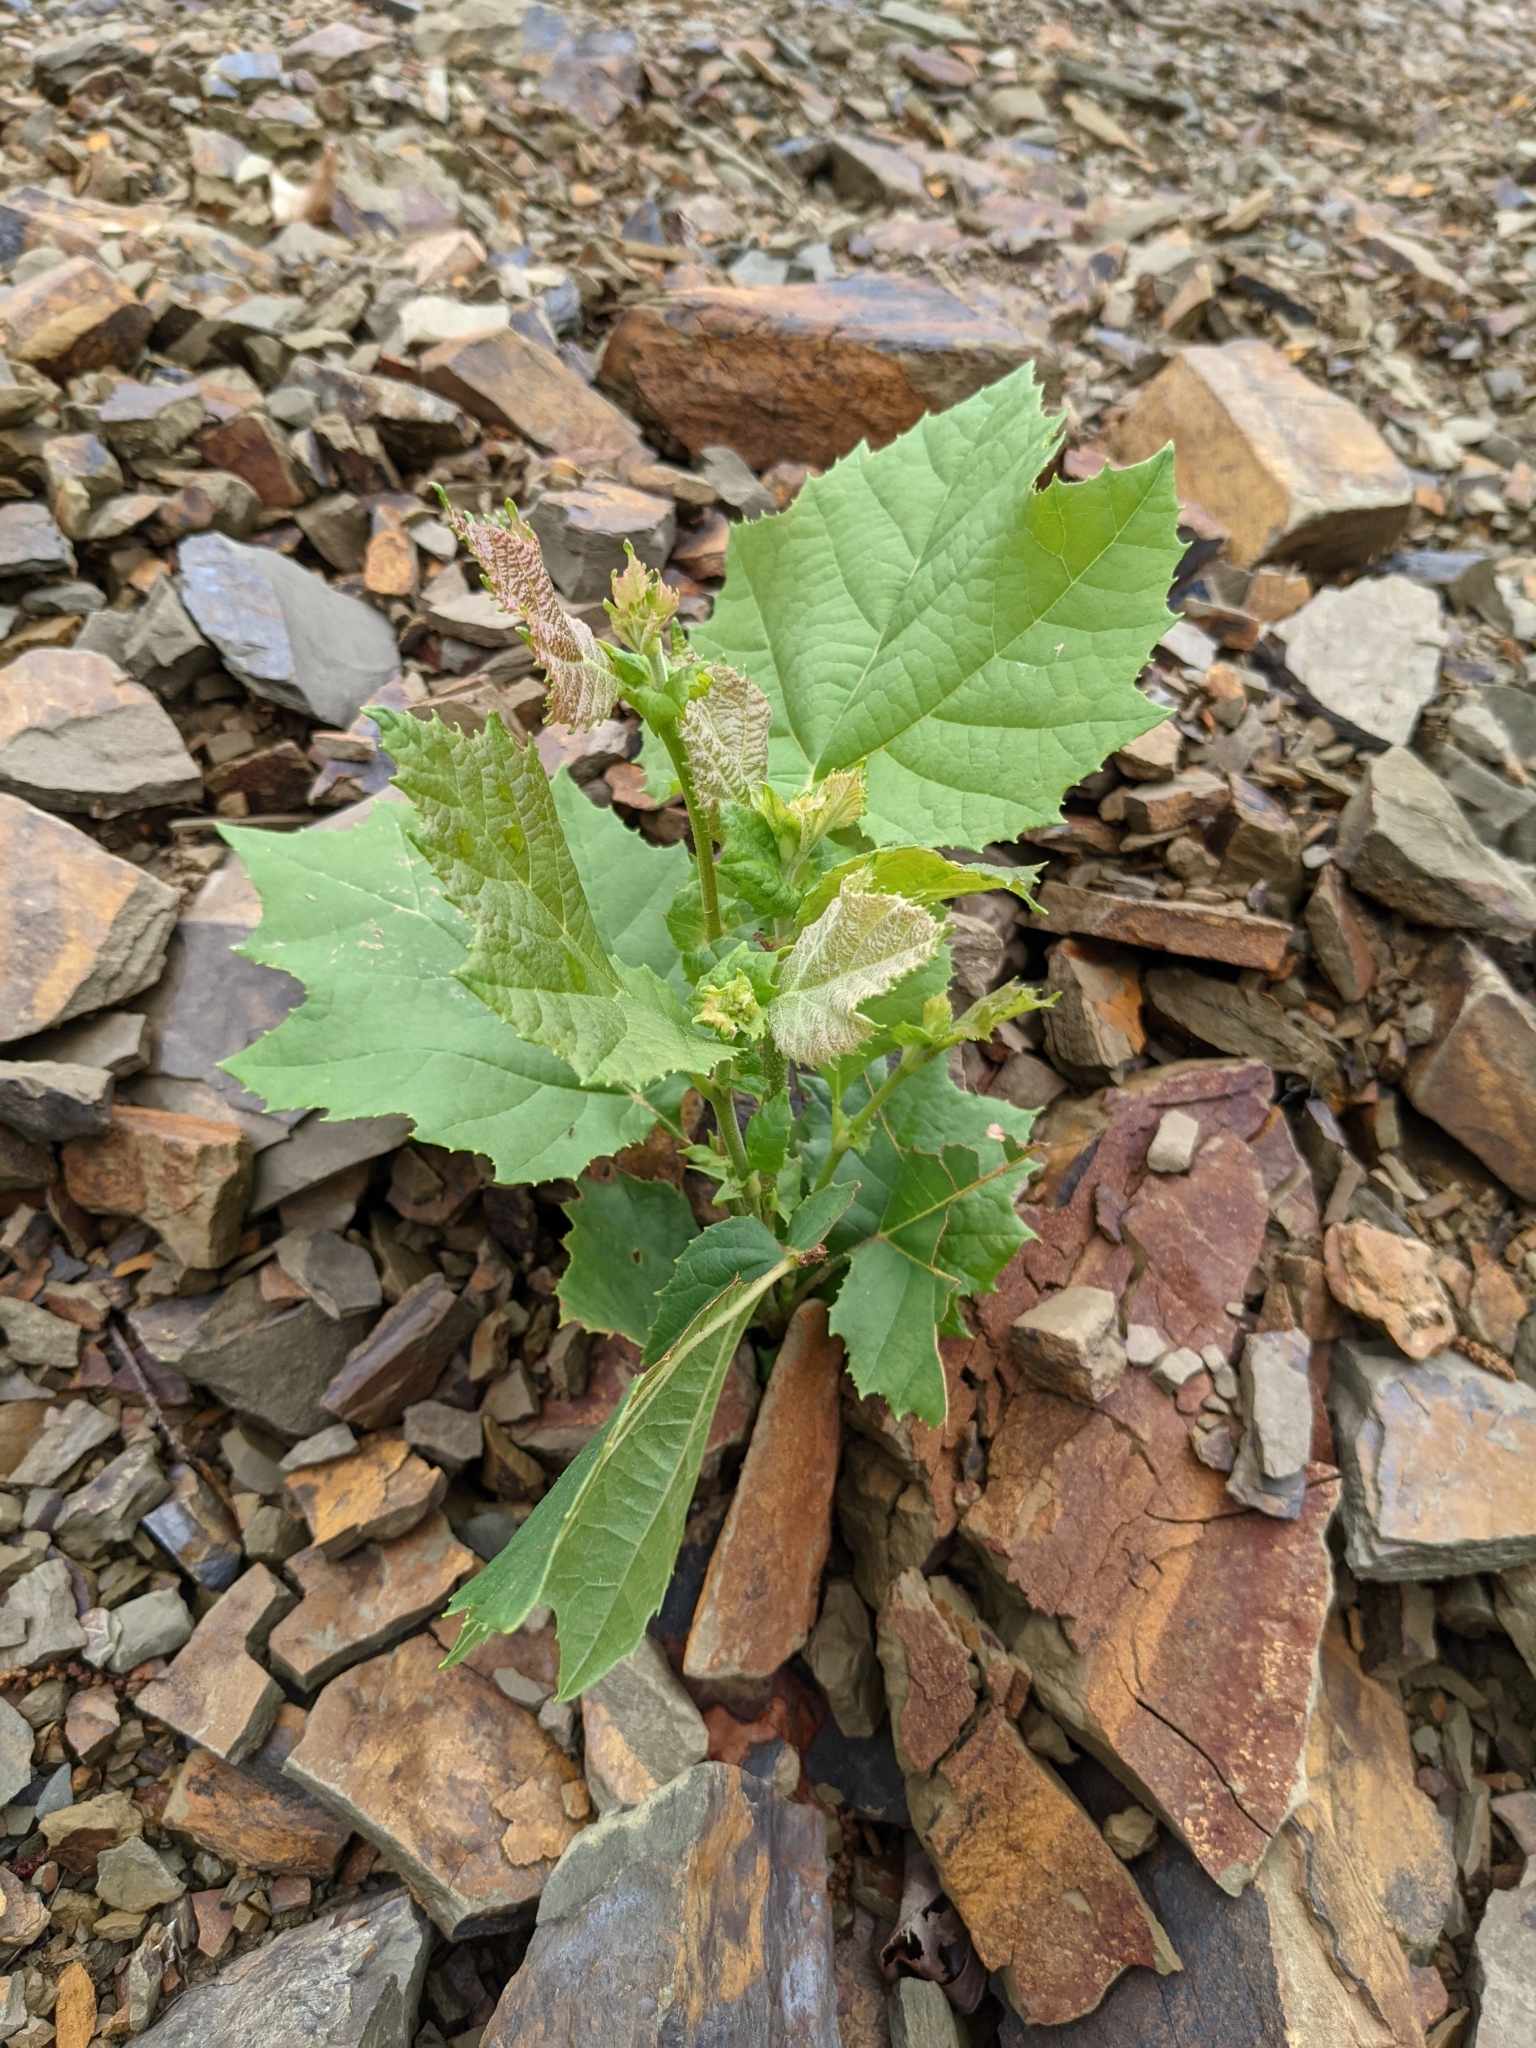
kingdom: Plantae
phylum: Tracheophyta
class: Magnoliopsida
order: Proteales
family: Platanaceae
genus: Platanus
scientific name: Platanus occidentalis
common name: American sycamore
